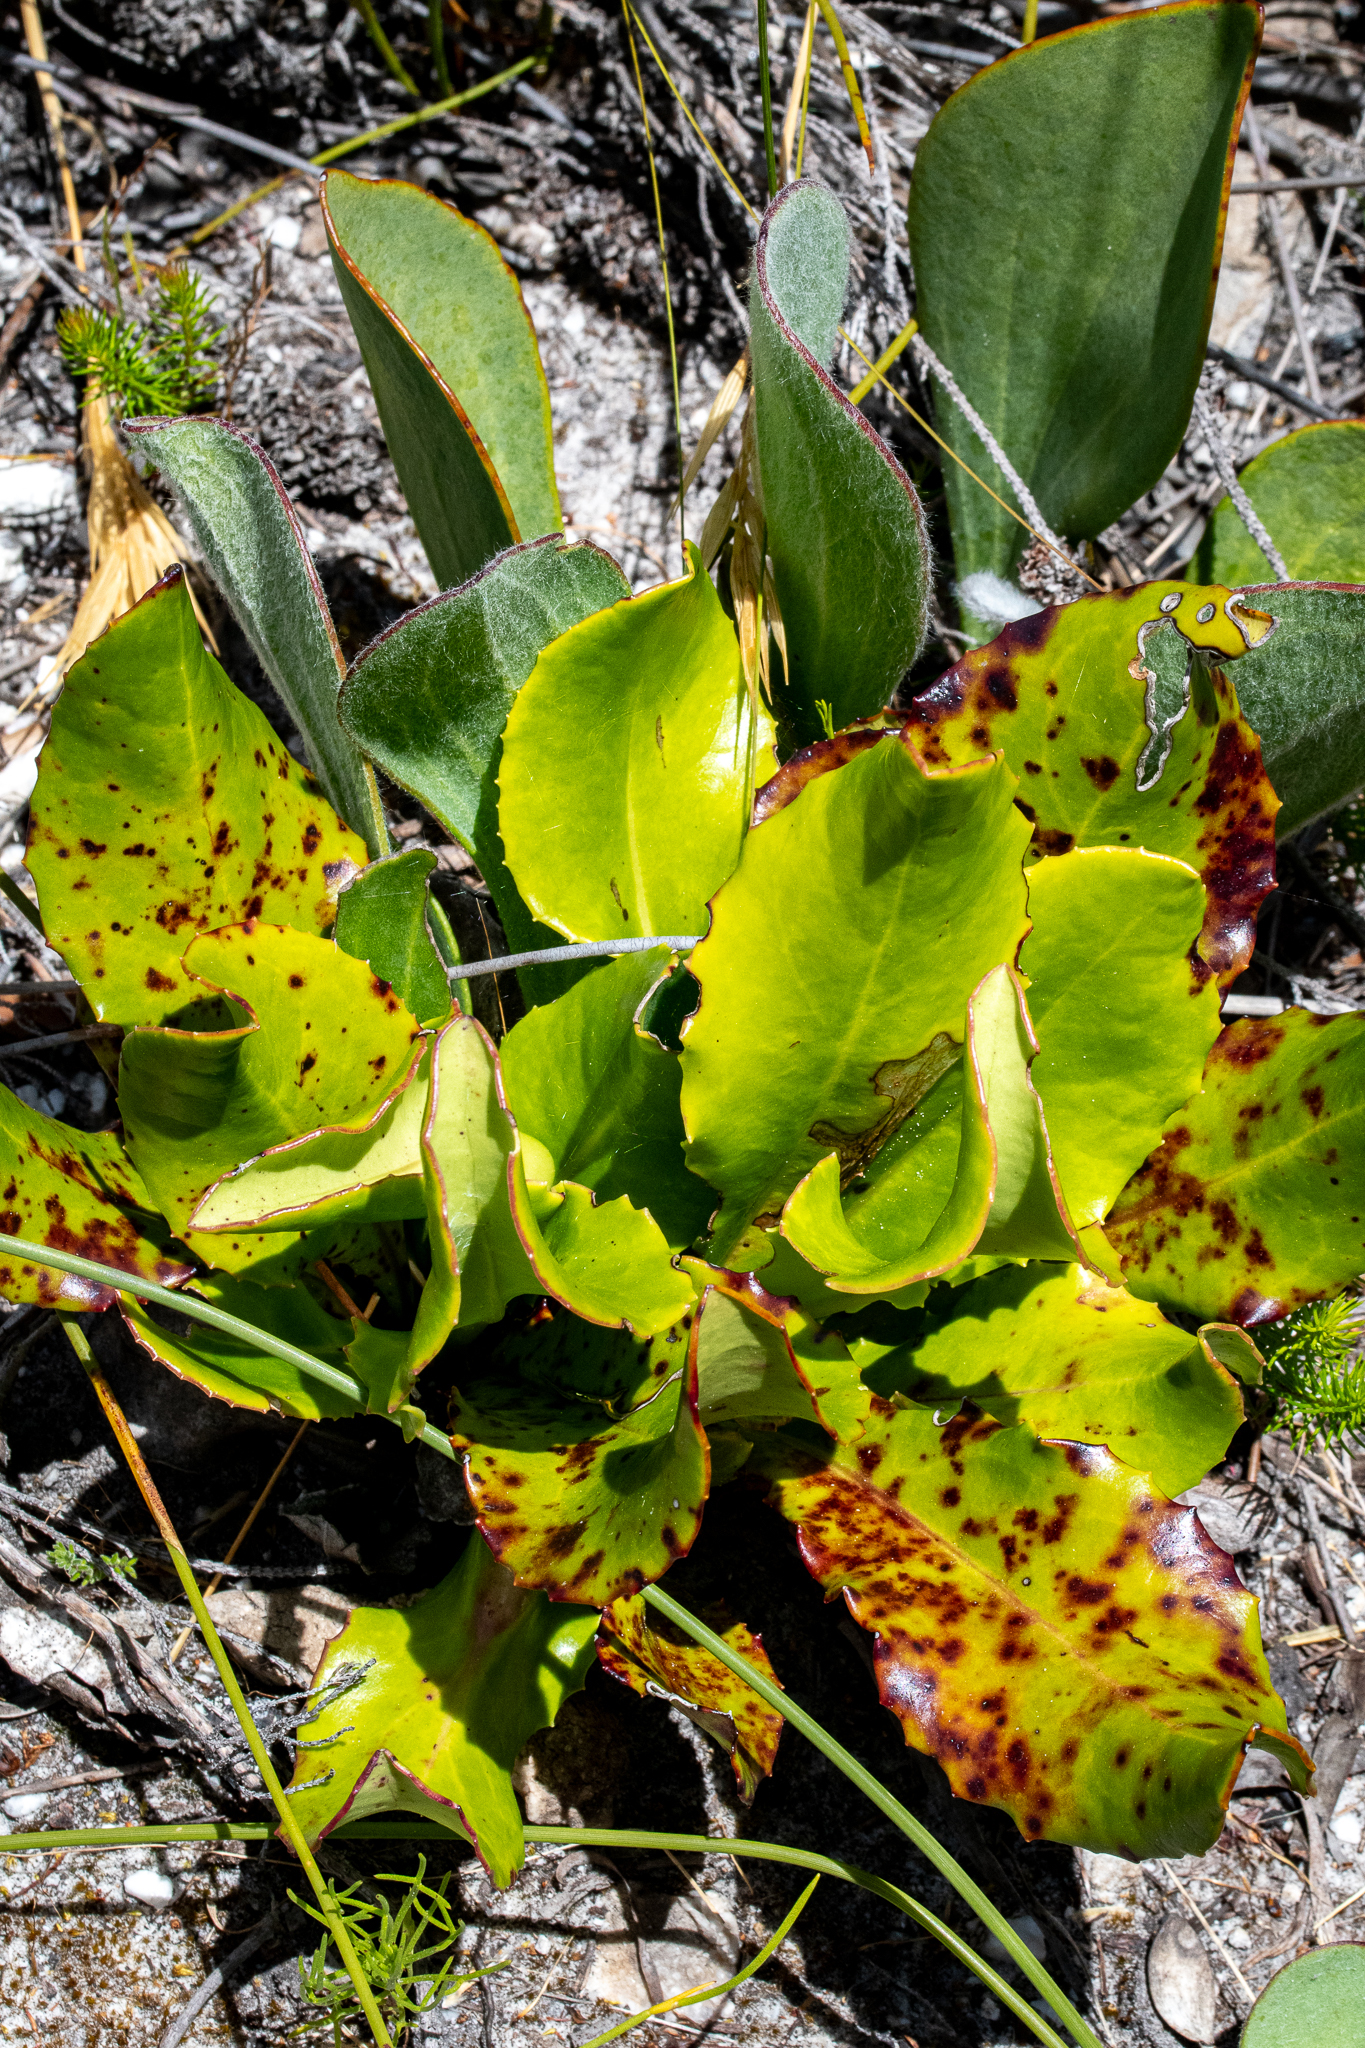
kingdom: Plantae
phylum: Tracheophyta
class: Magnoliopsida
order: Asterales
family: Asteraceae
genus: Gerbera
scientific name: Gerbera crocea
